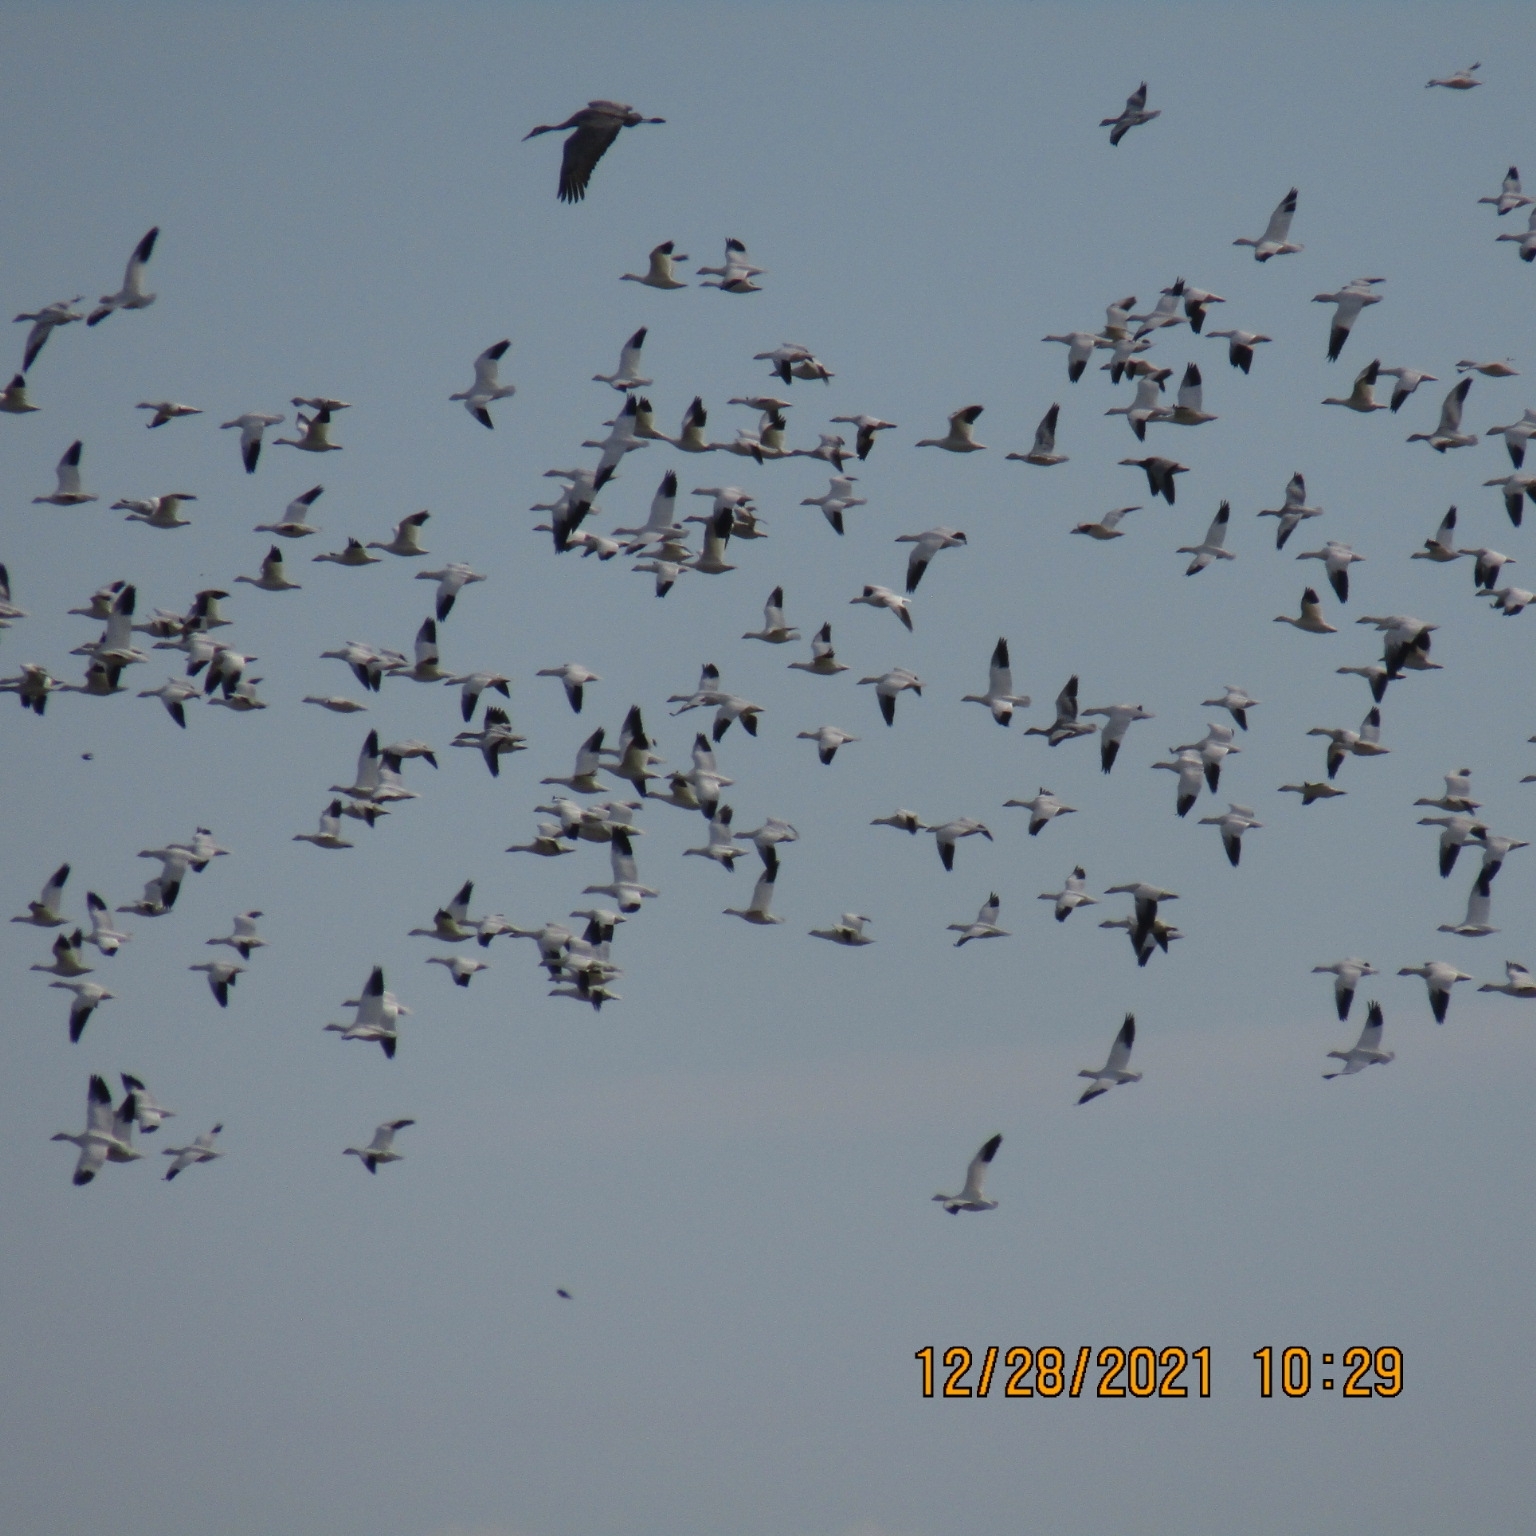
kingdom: Animalia
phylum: Chordata
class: Aves
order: Anseriformes
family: Anatidae
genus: Anser
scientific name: Anser caerulescens
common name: Snow goose
